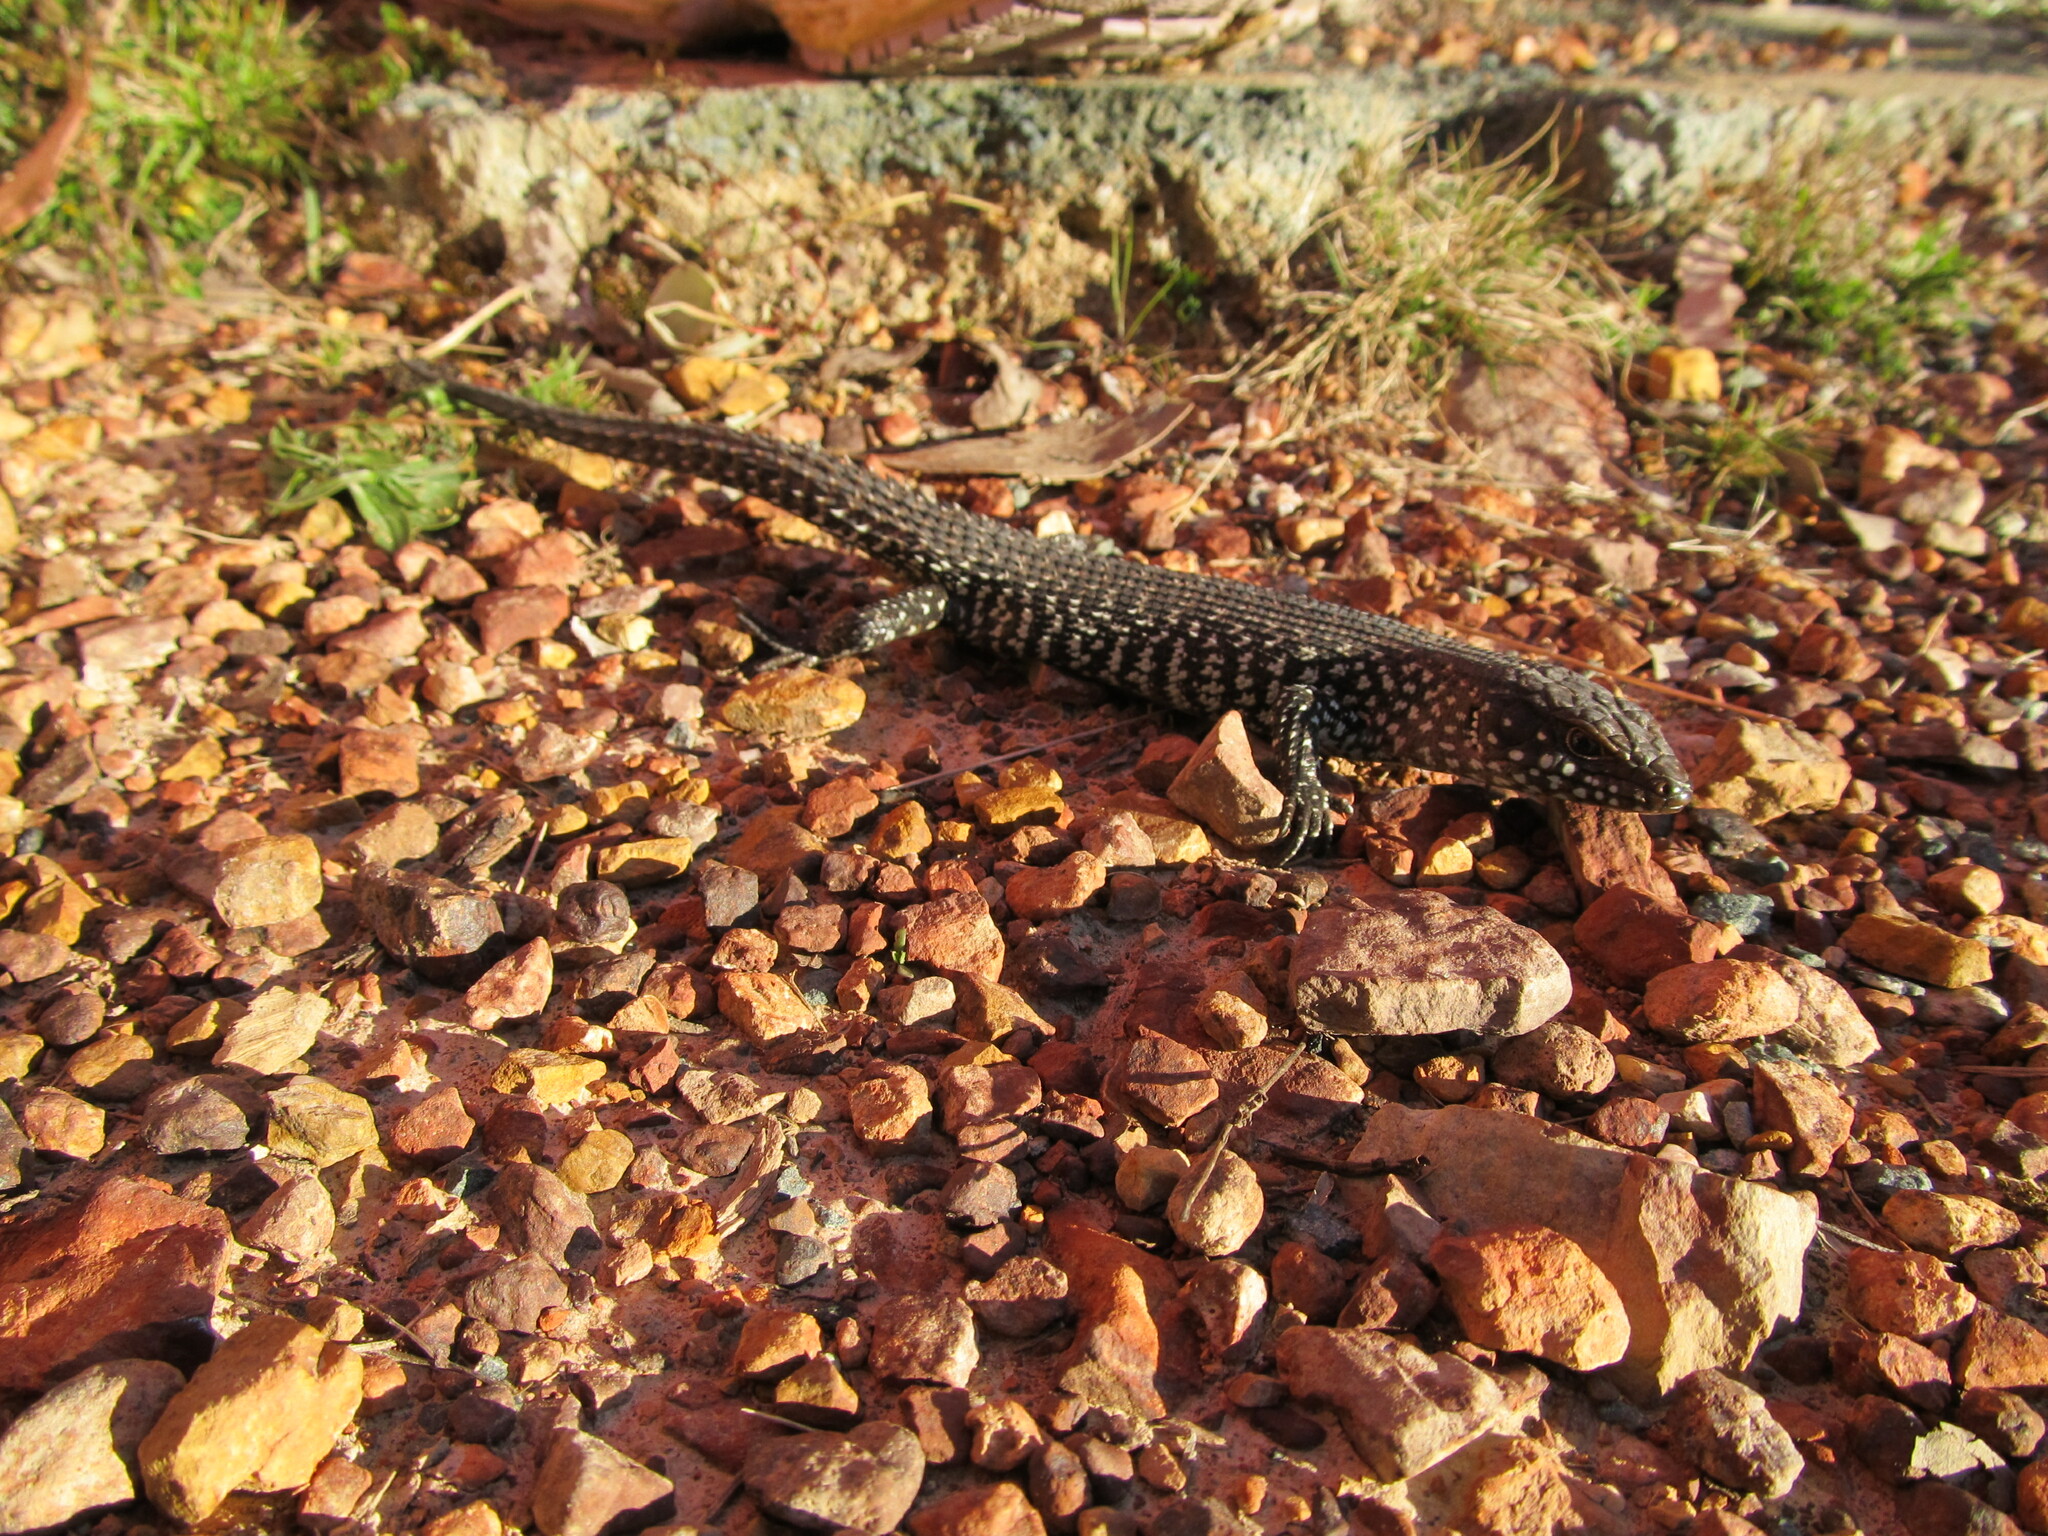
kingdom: Animalia
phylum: Chordata
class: Squamata
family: Scincidae
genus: Egernia
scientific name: Egernia cunninghami
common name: Cunningham's skink
